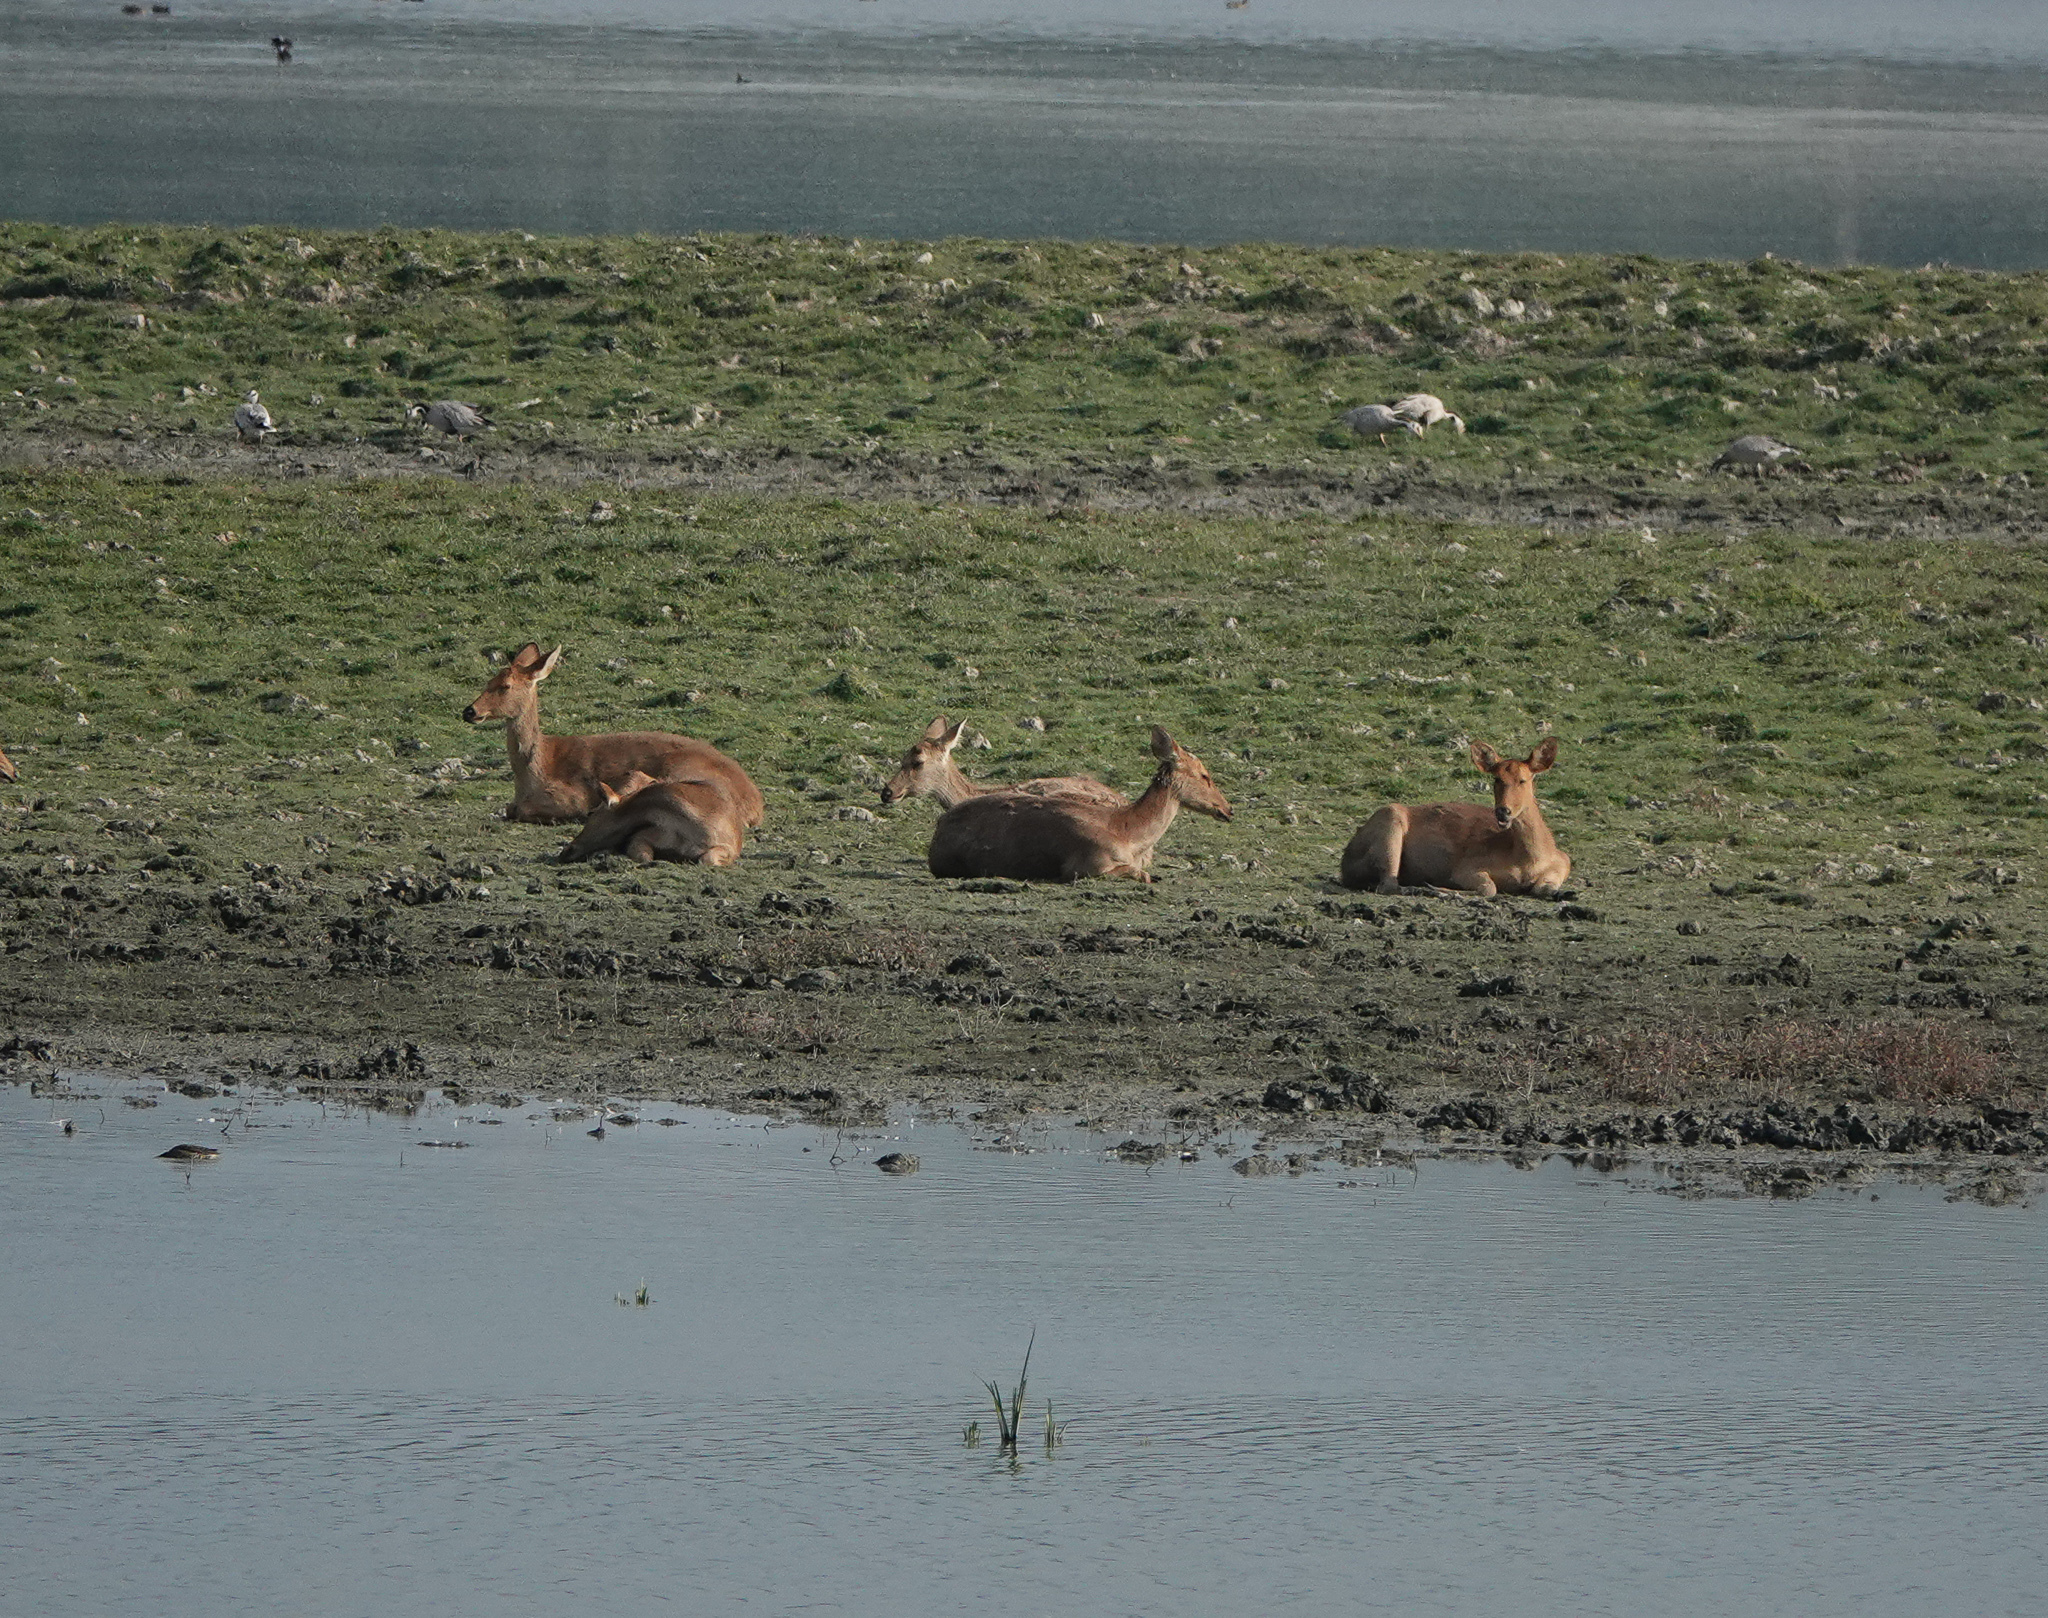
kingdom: Animalia
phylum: Chordata
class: Mammalia
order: Artiodactyla
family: Cervidae
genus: Rucervus
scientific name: Rucervus duvaucelii
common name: Barasingha
